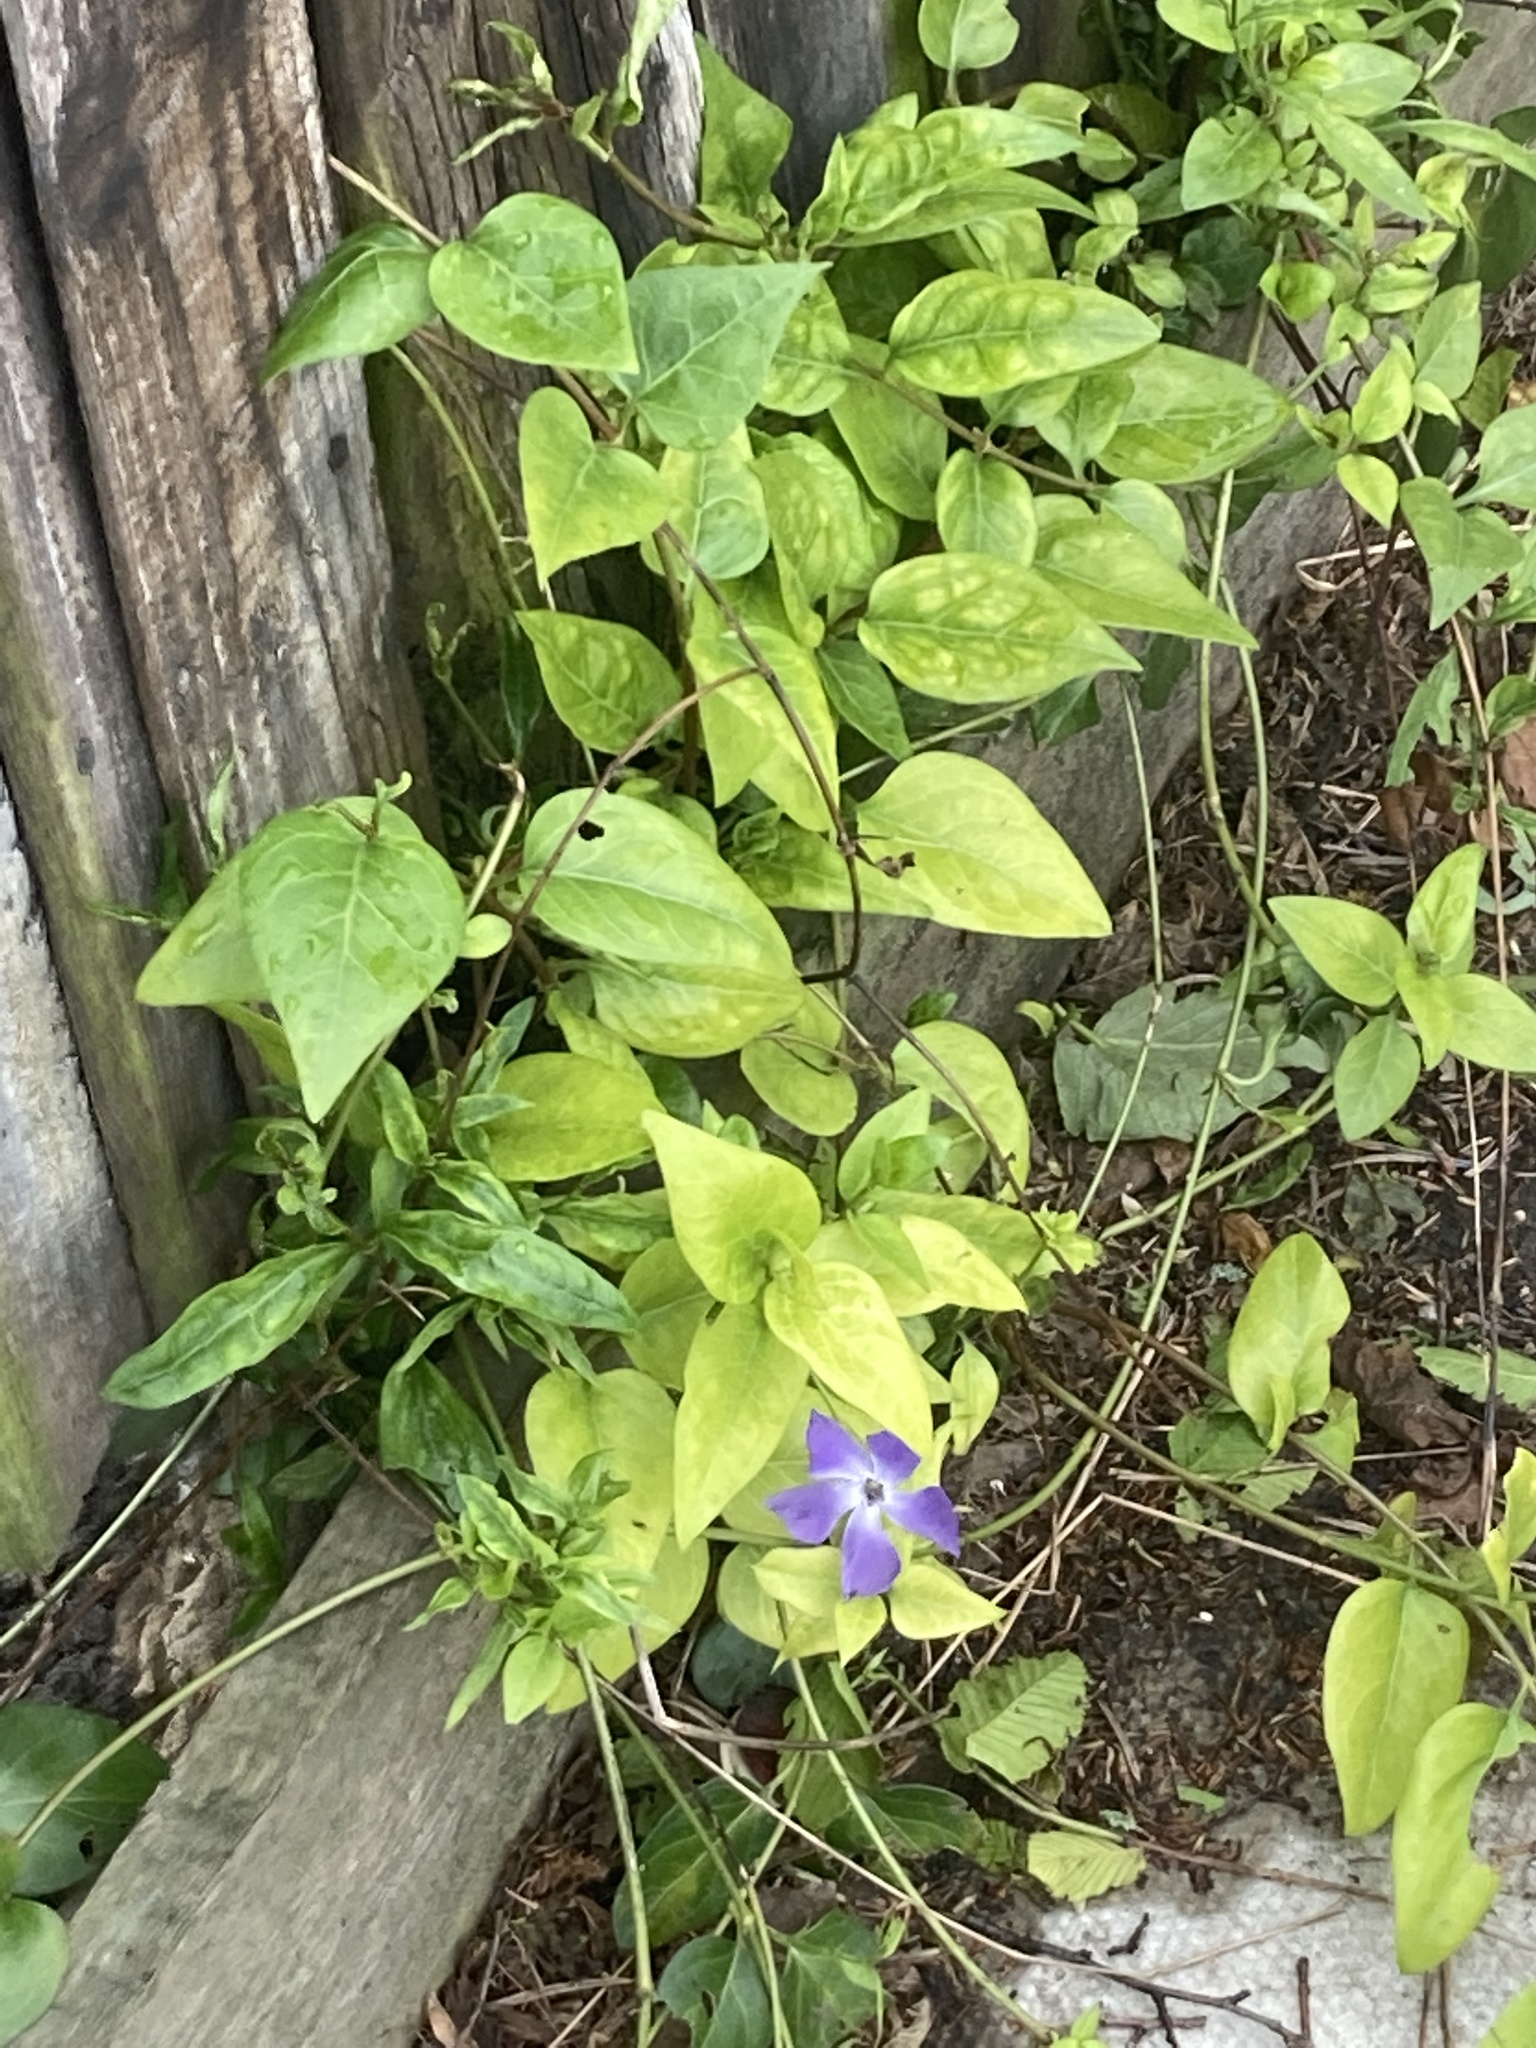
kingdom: Plantae
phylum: Tracheophyta
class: Magnoliopsida
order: Gentianales
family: Apocynaceae
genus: Vinca
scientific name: Vinca major
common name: Greater periwinkle
